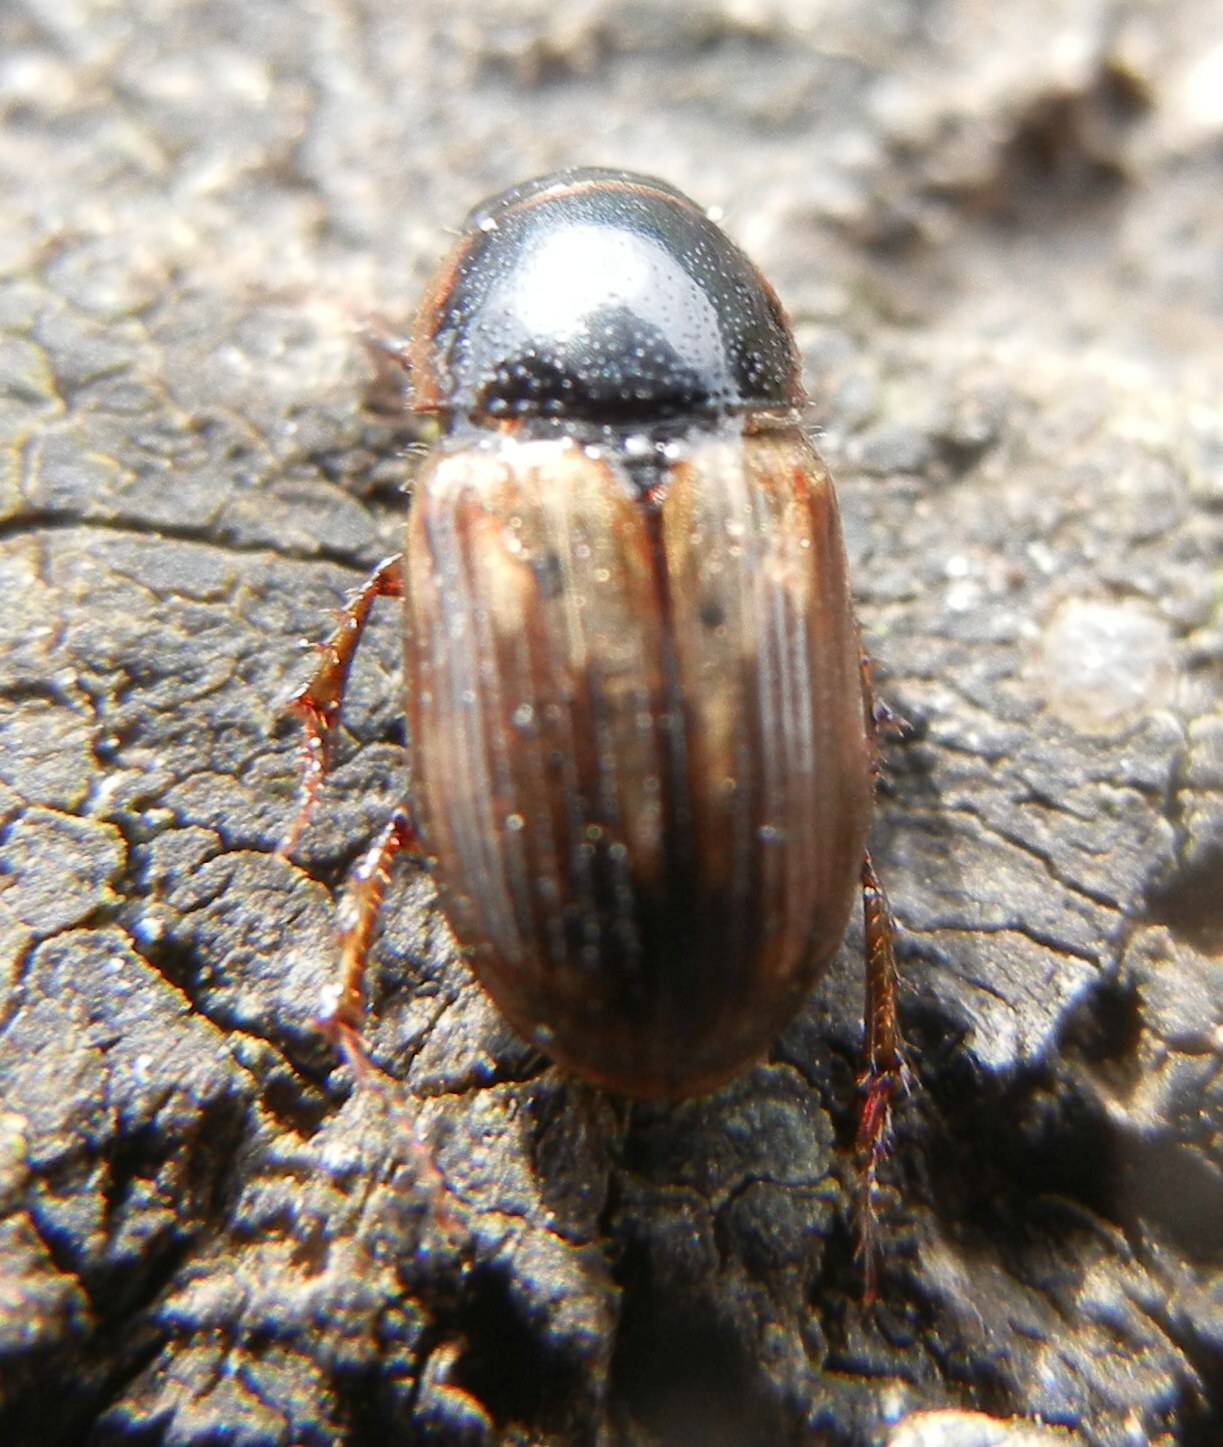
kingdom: Animalia
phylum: Arthropoda
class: Insecta
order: Coleoptera
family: Scarabaeidae
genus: Melinopterus
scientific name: Melinopterus prodromus
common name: Spring small dung beetle
